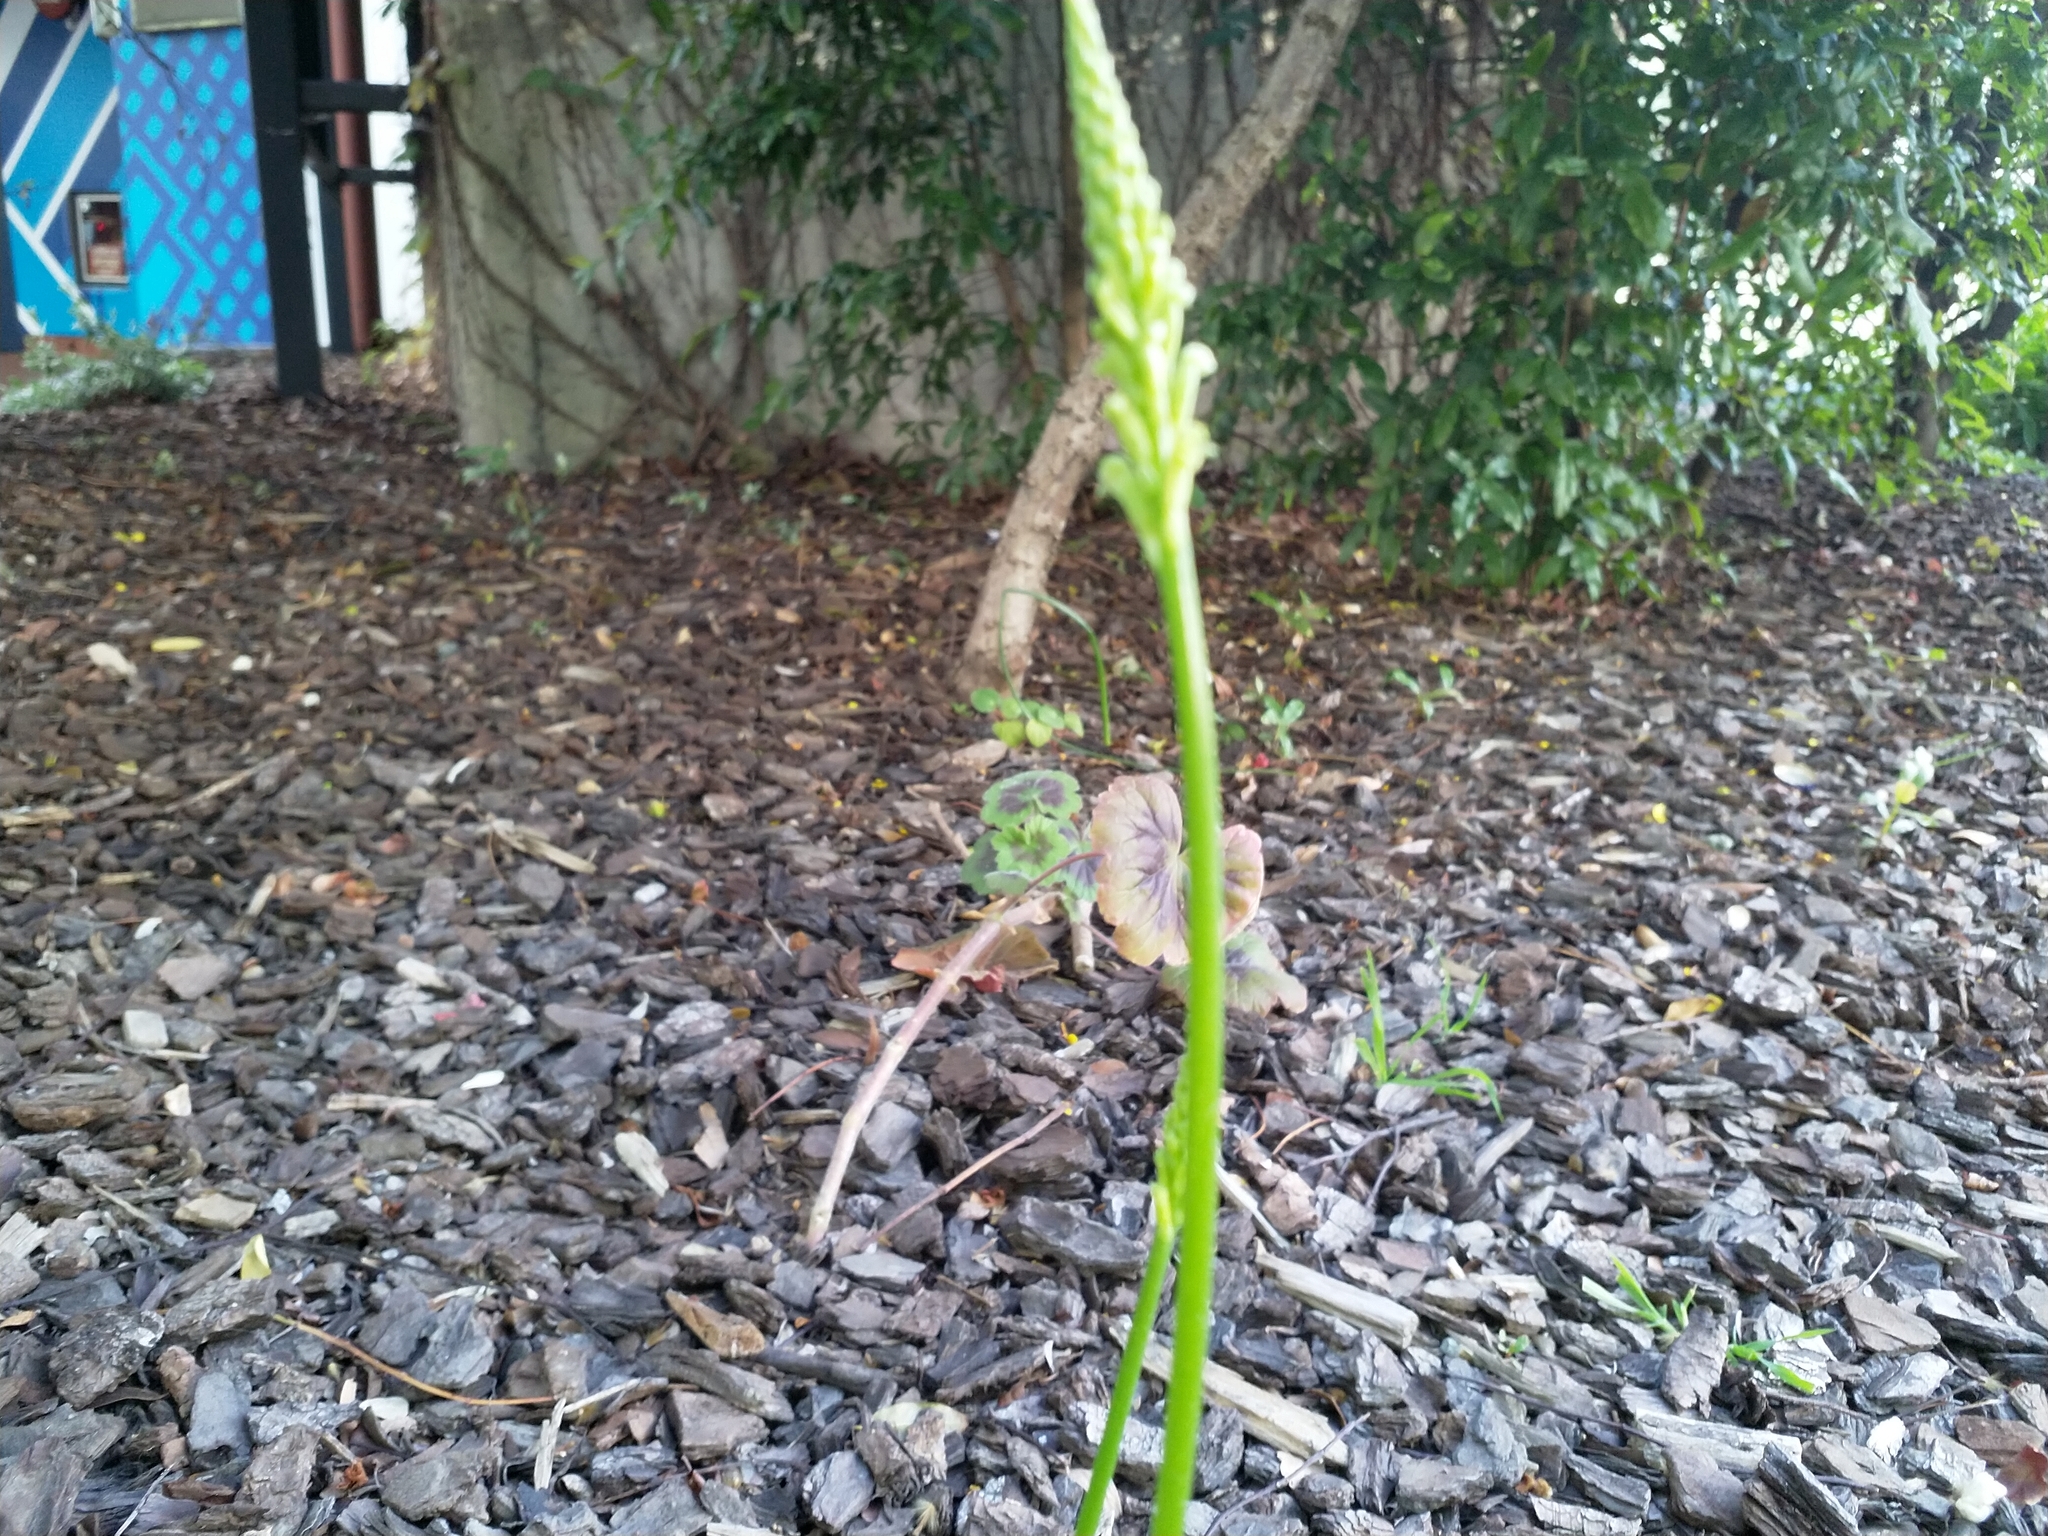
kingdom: Plantae
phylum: Tracheophyta
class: Liliopsida
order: Asparagales
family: Orchidaceae
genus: Microtis
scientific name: Microtis unifolia
